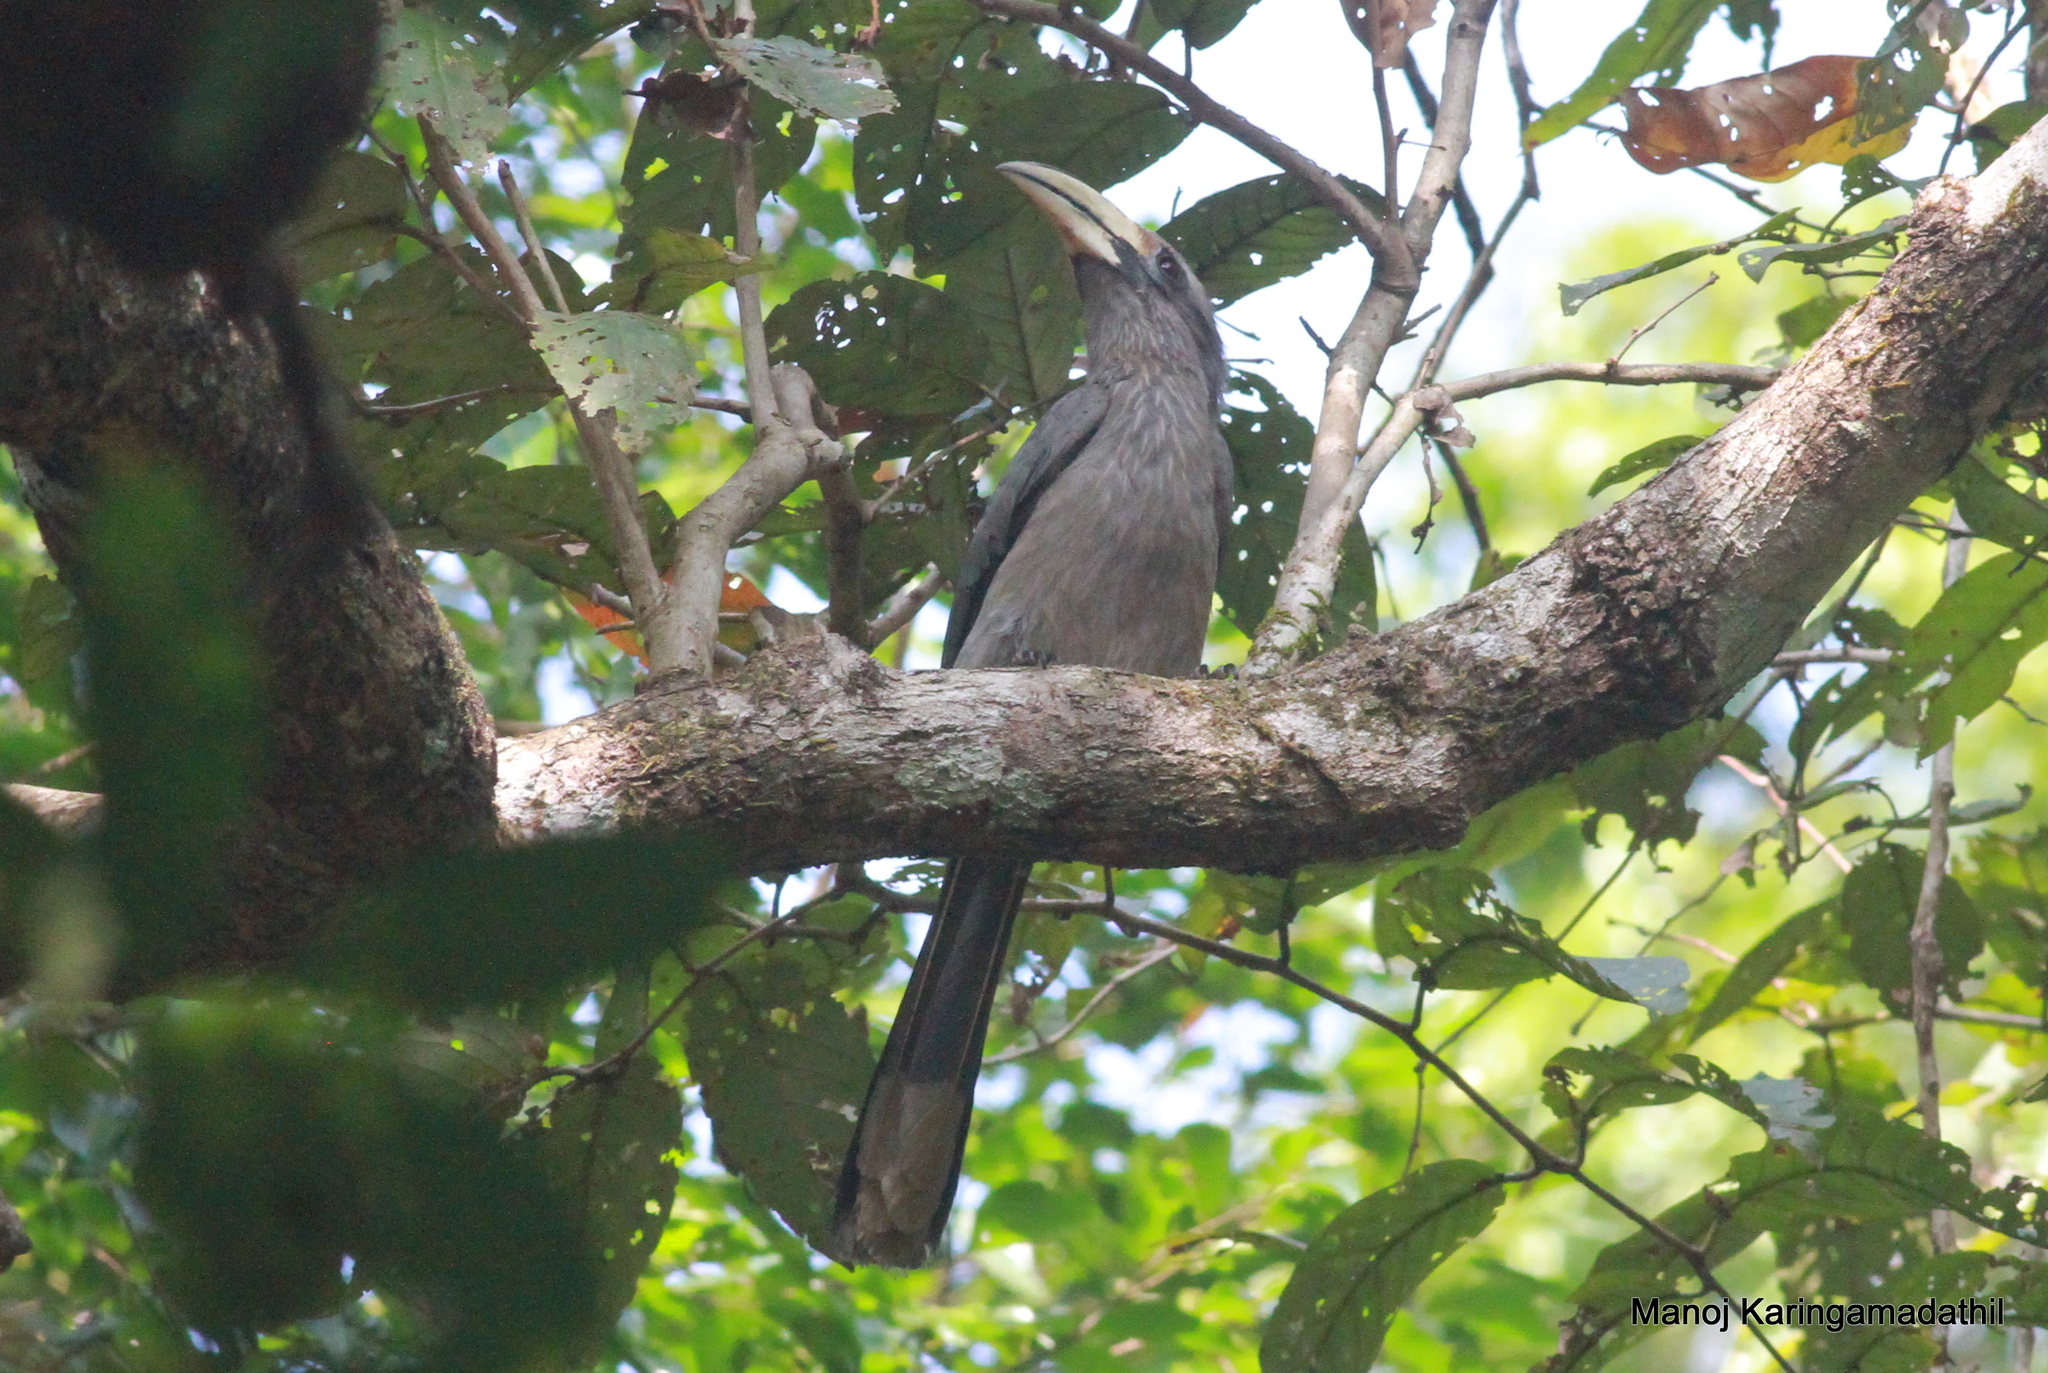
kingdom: Animalia
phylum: Chordata
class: Aves
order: Bucerotiformes
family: Bucerotidae
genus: Ocyceros
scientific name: Ocyceros griseus
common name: Malabar grey hornbill
